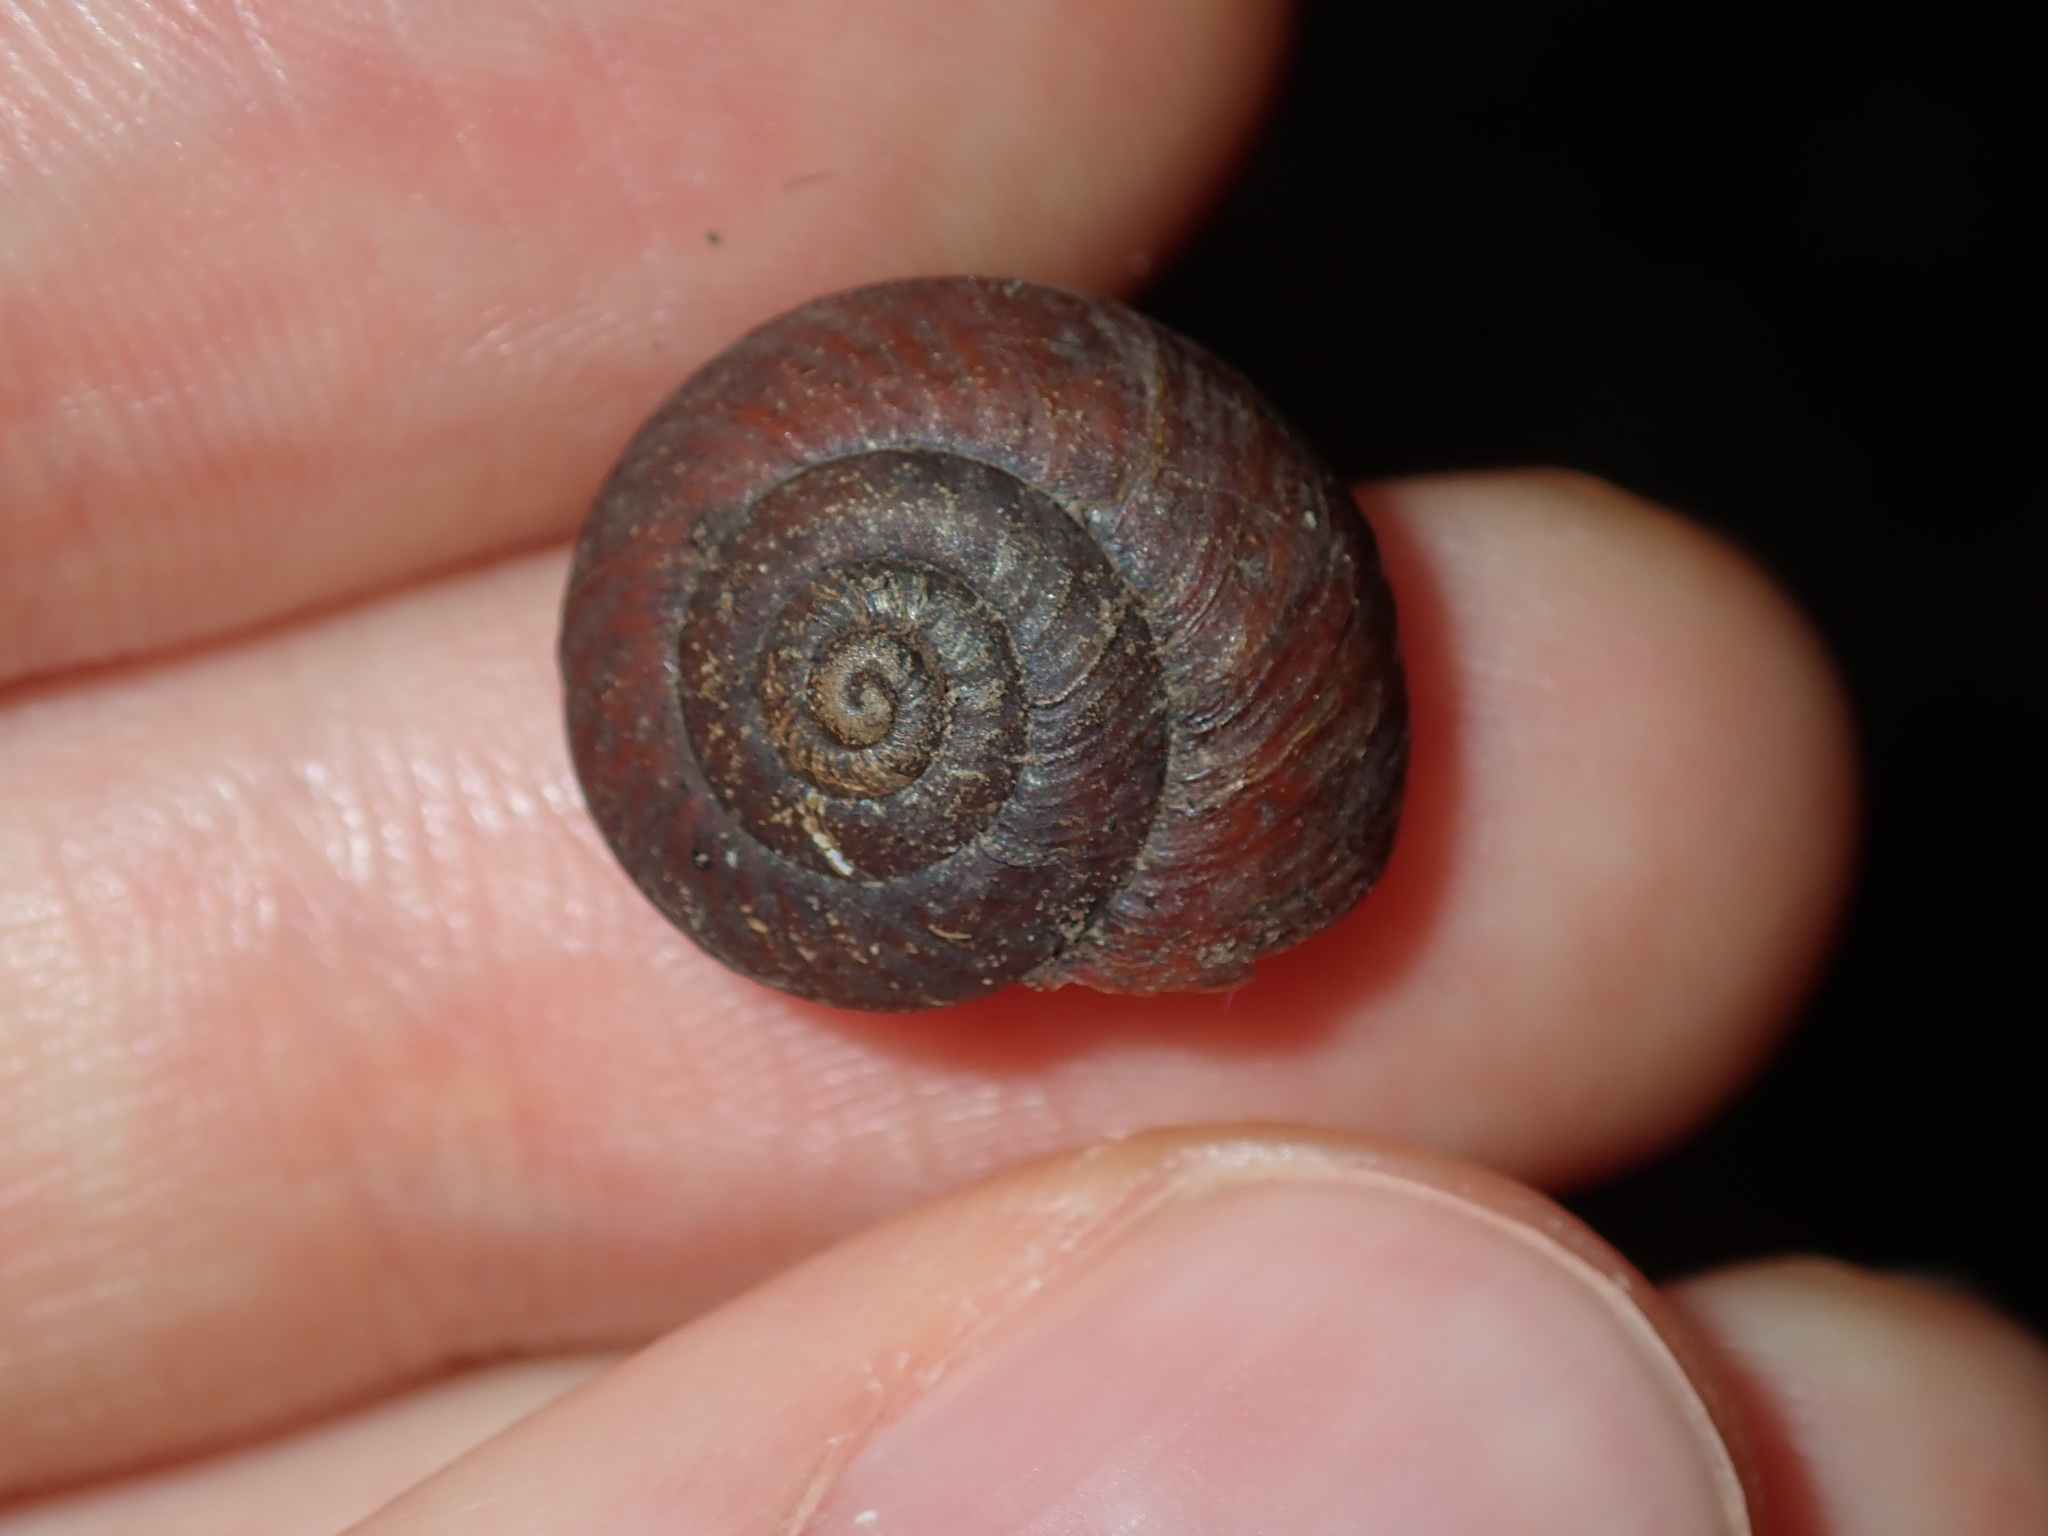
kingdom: Animalia
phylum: Mollusca
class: Gastropoda
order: Stylommatophora
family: Camaenidae
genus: Sauroconcha
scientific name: Sauroconcha sheai
